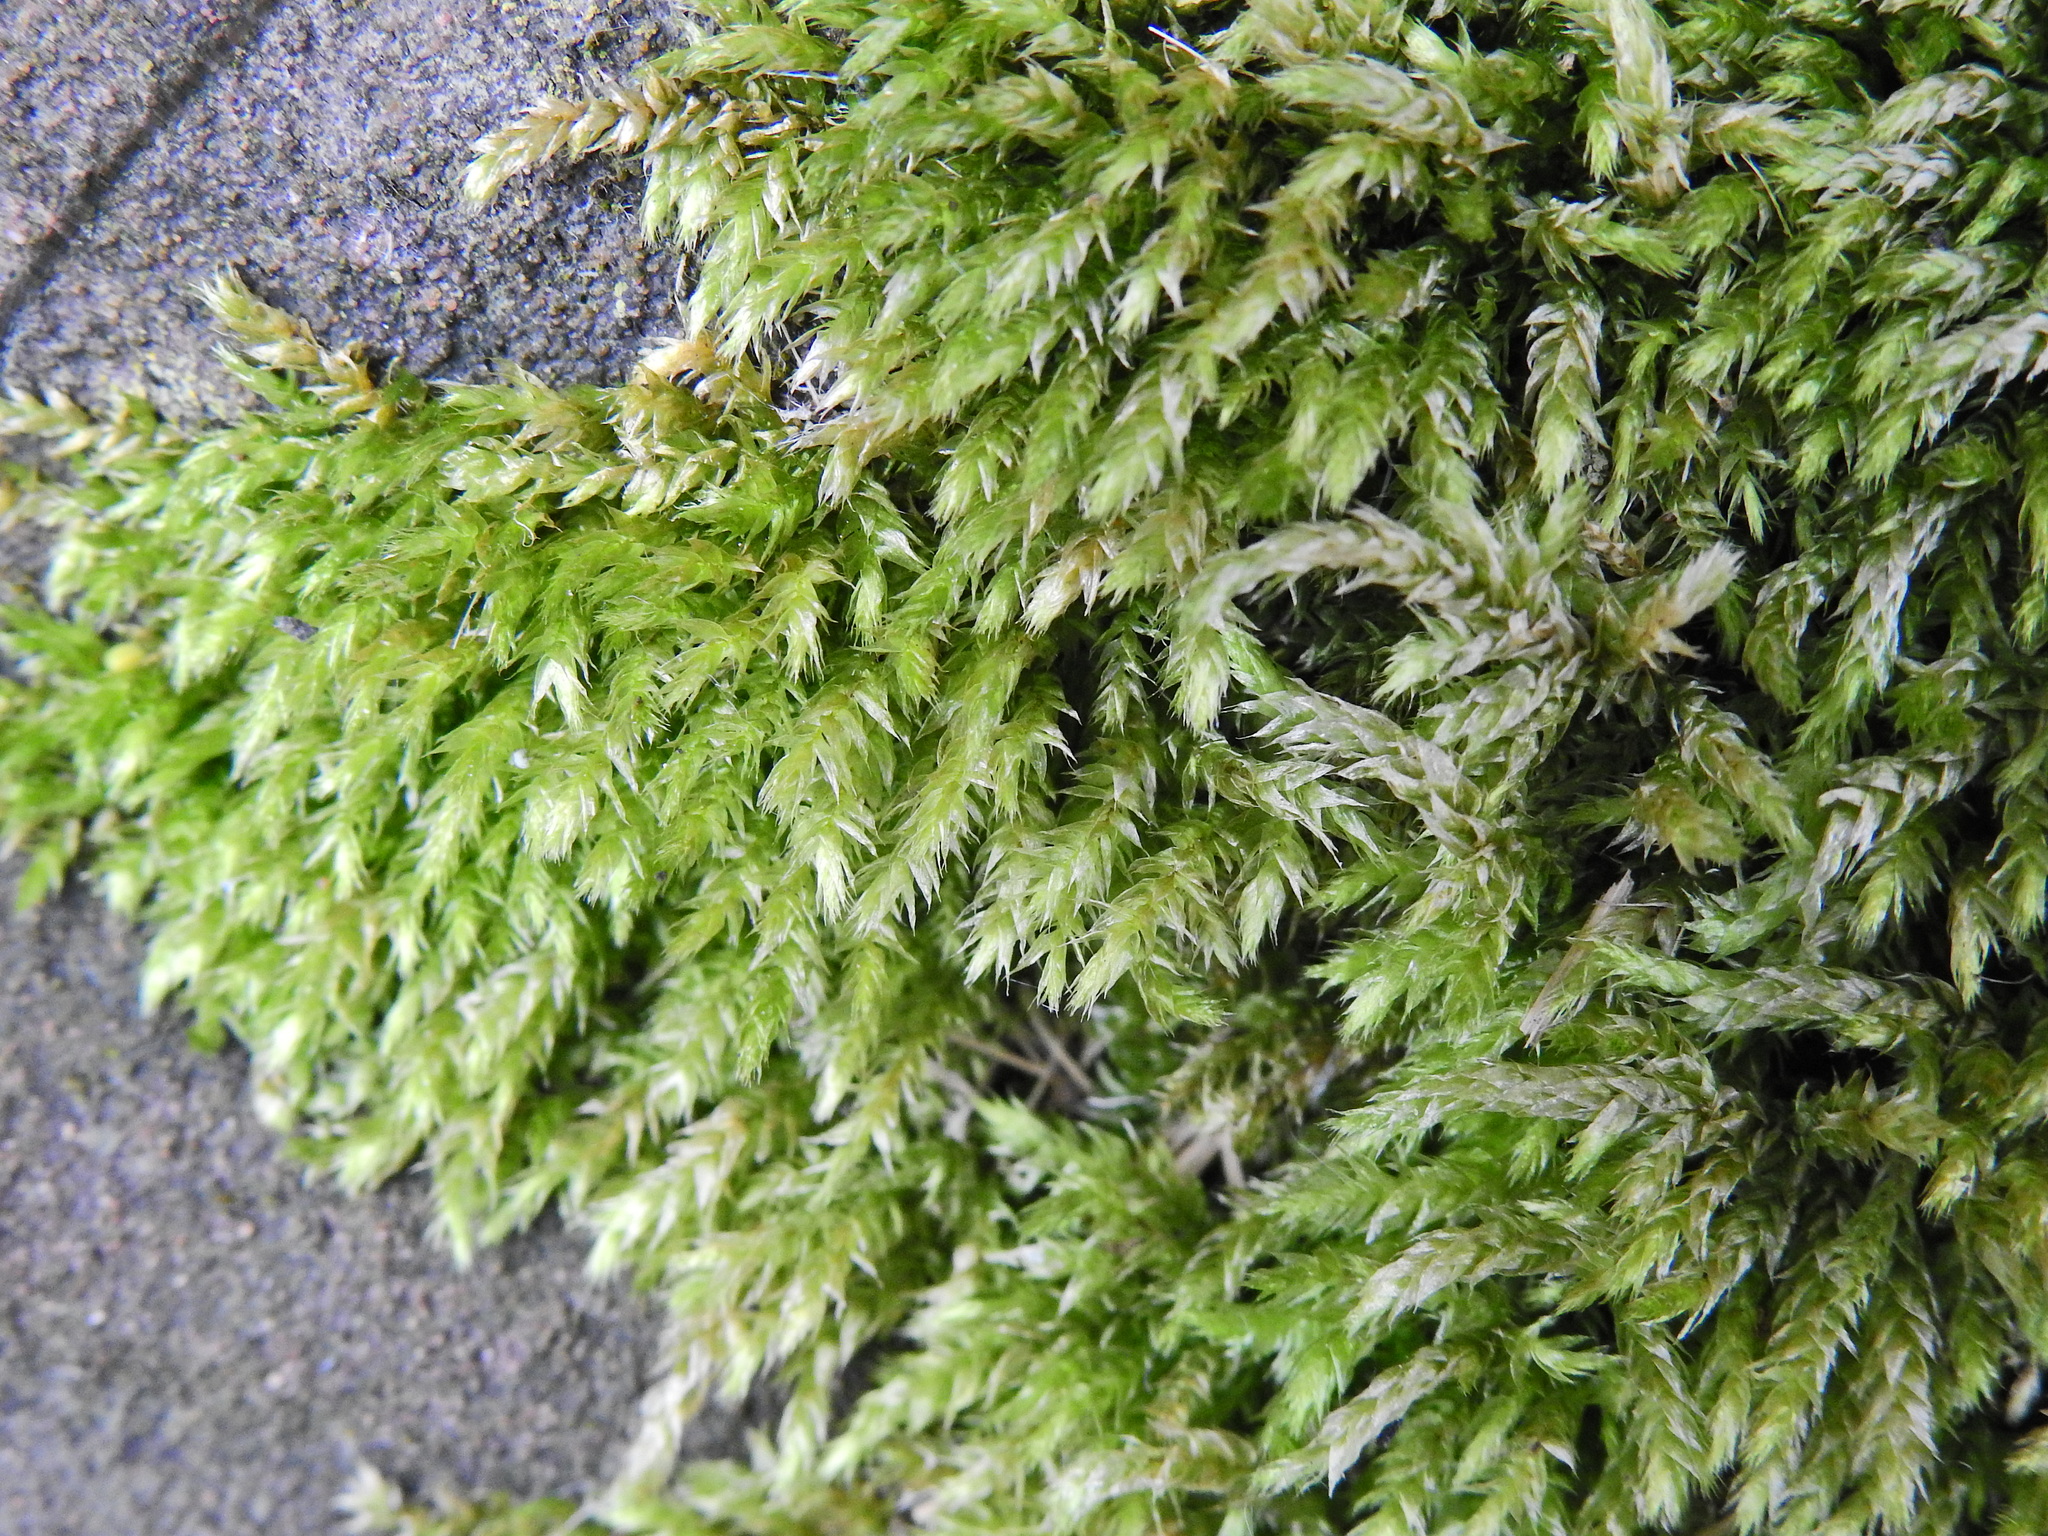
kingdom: Plantae
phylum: Bryophyta
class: Bryopsida
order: Hypnales
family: Brachytheciaceae
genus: Brachythecium
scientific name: Brachythecium rutabulum
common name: Rough-stalked feather-moss
